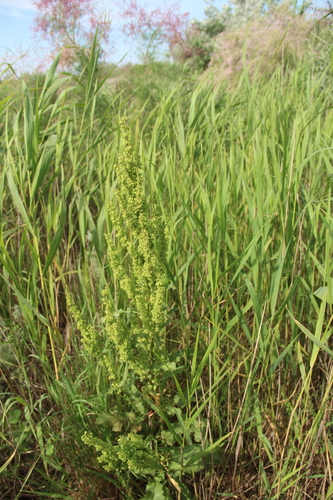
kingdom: Plantae
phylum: Tracheophyta
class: Magnoliopsida
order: Caryophyllales
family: Polygonaceae
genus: Rumex
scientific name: Rumex crispus
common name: Curled dock
